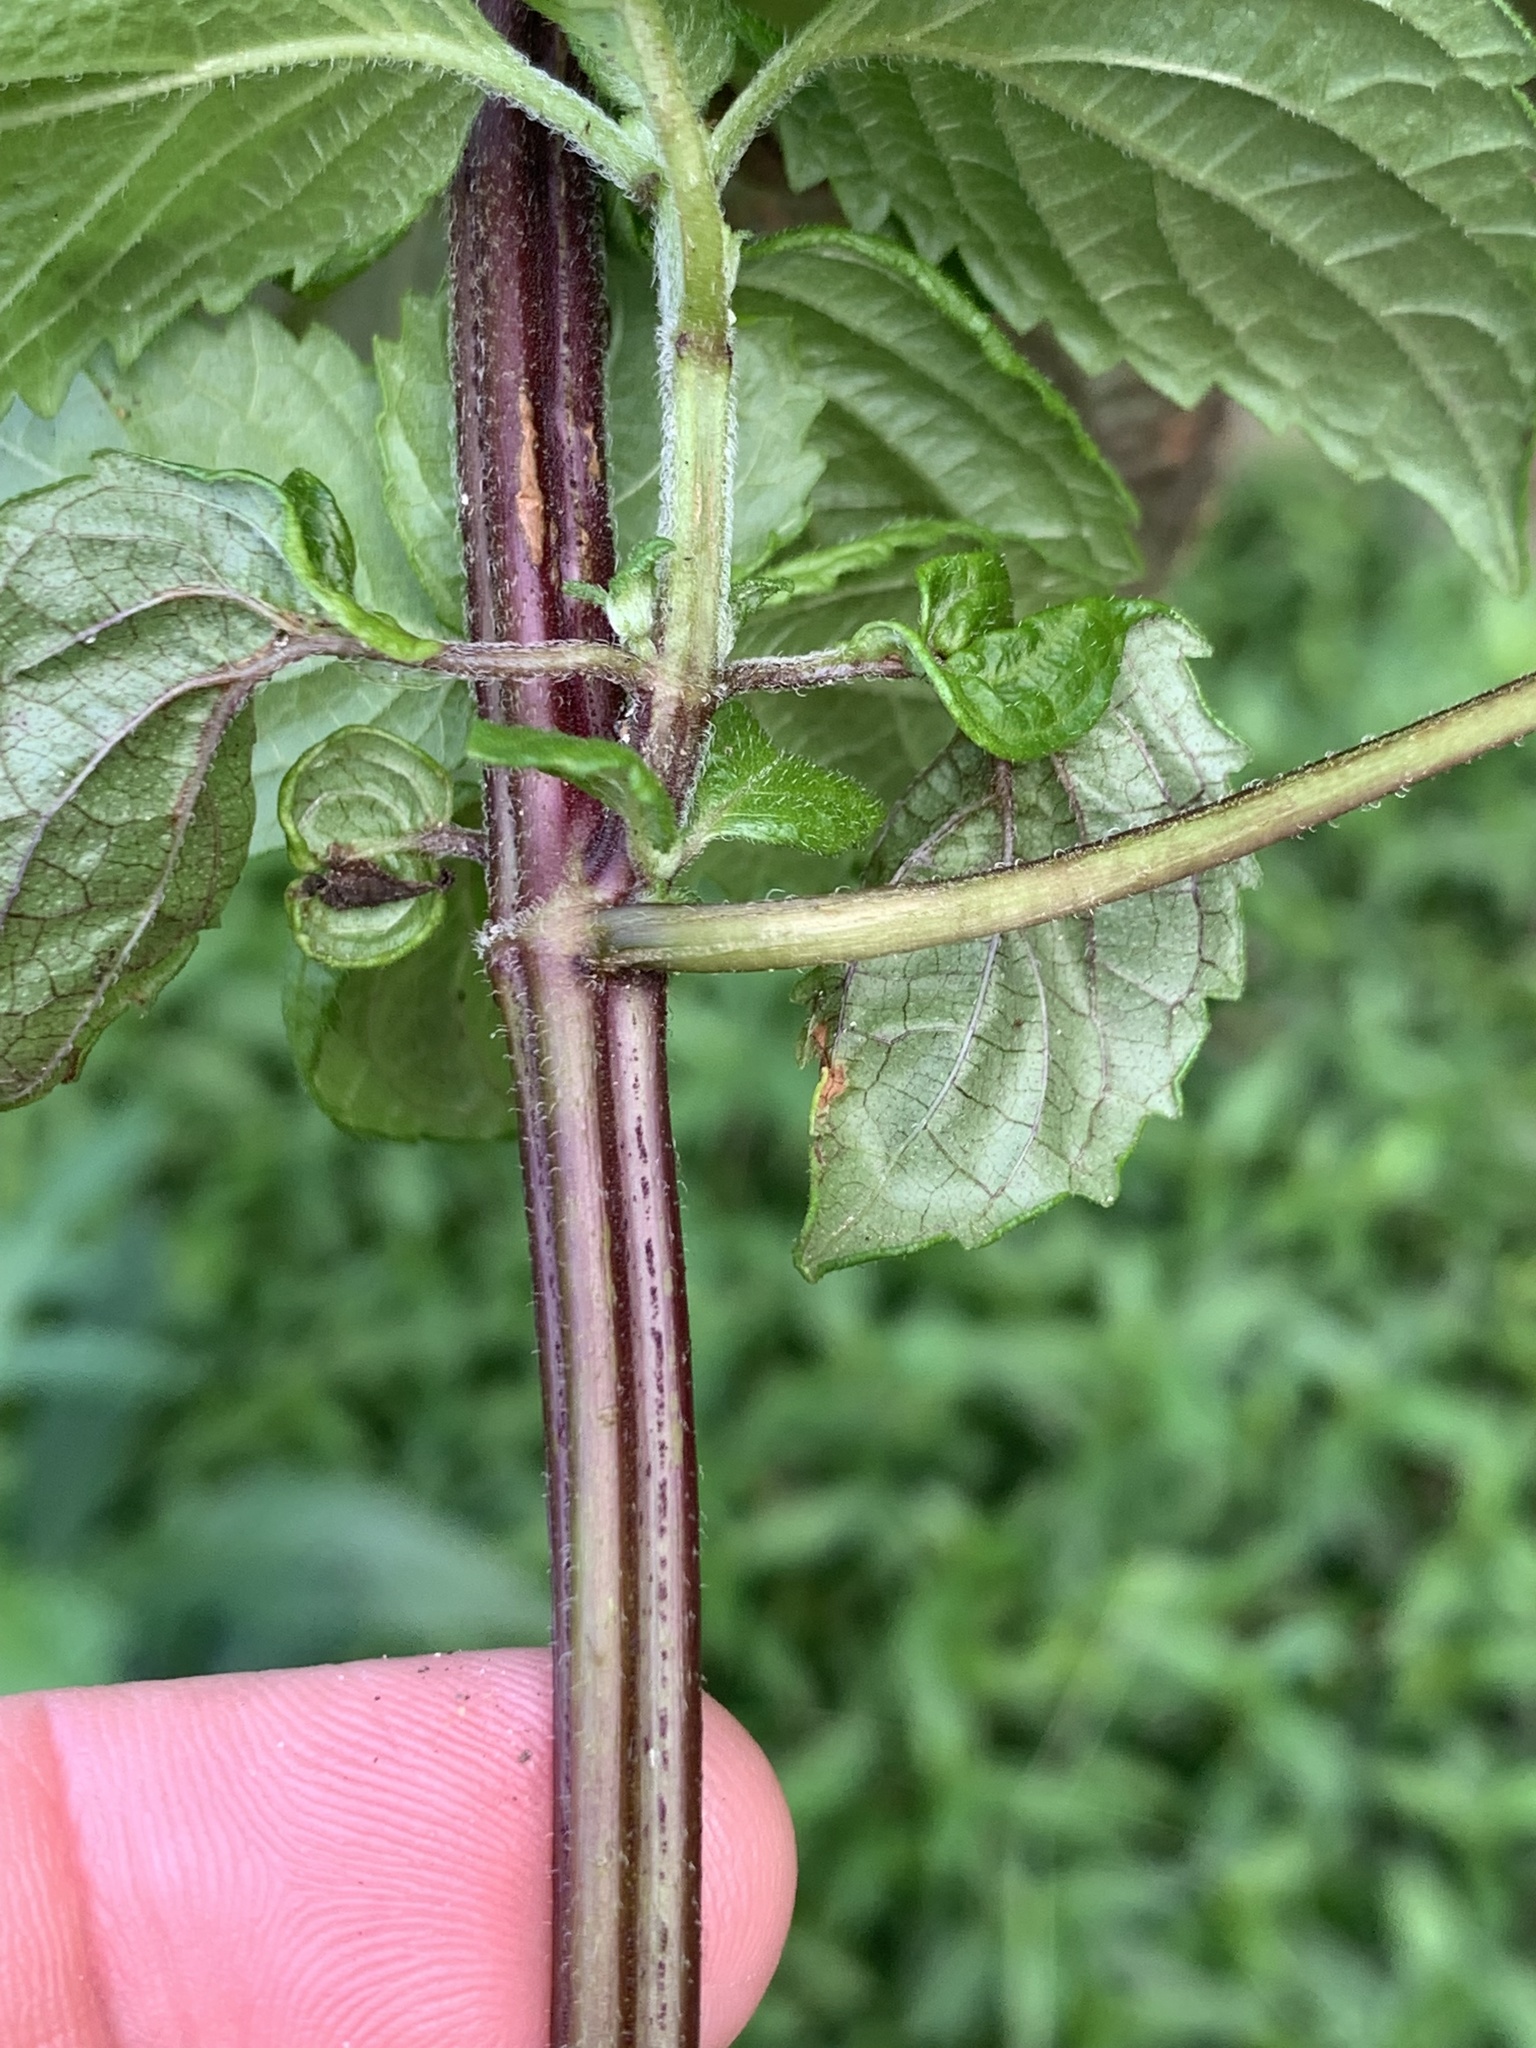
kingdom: Plantae
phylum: Tracheophyta
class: Magnoliopsida
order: Lamiales
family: Lamiaceae
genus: Perilla
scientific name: Perilla frutescens
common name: Perilla
